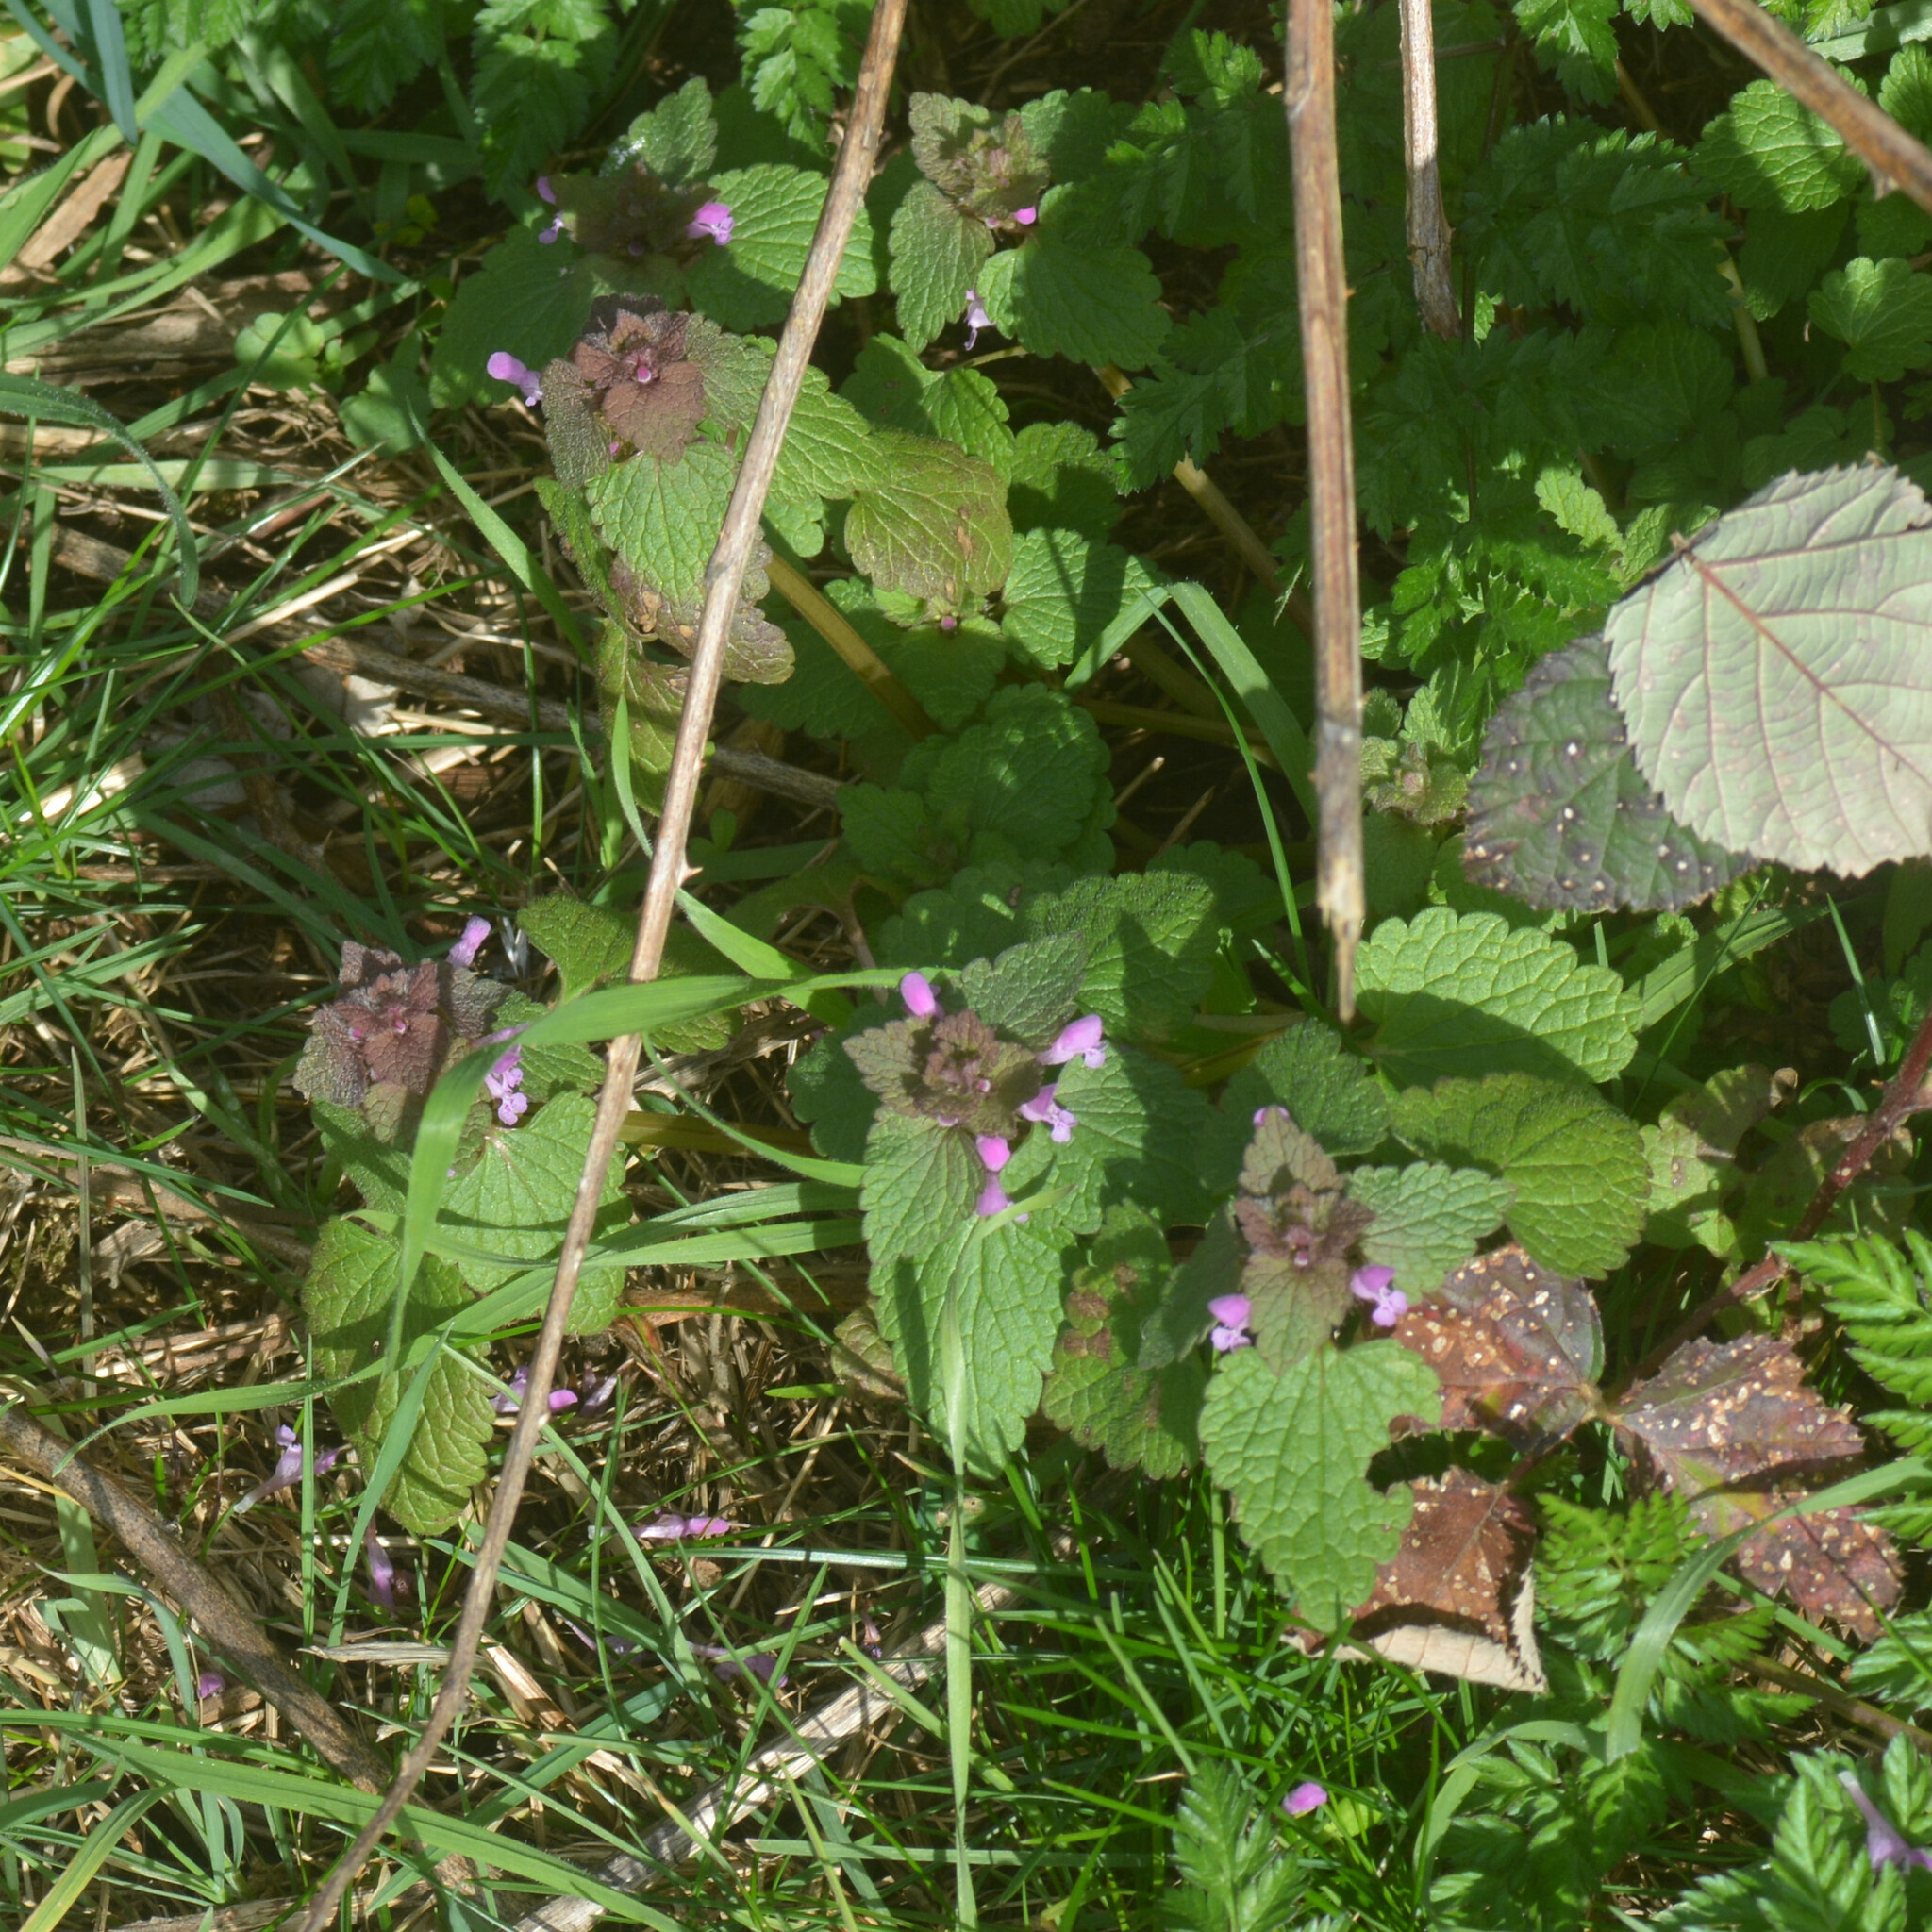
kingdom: Plantae
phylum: Tracheophyta
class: Magnoliopsida
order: Lamiales
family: Lamiaceae
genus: Lamium
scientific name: Lamium purpureum
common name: Red dead-nettle
